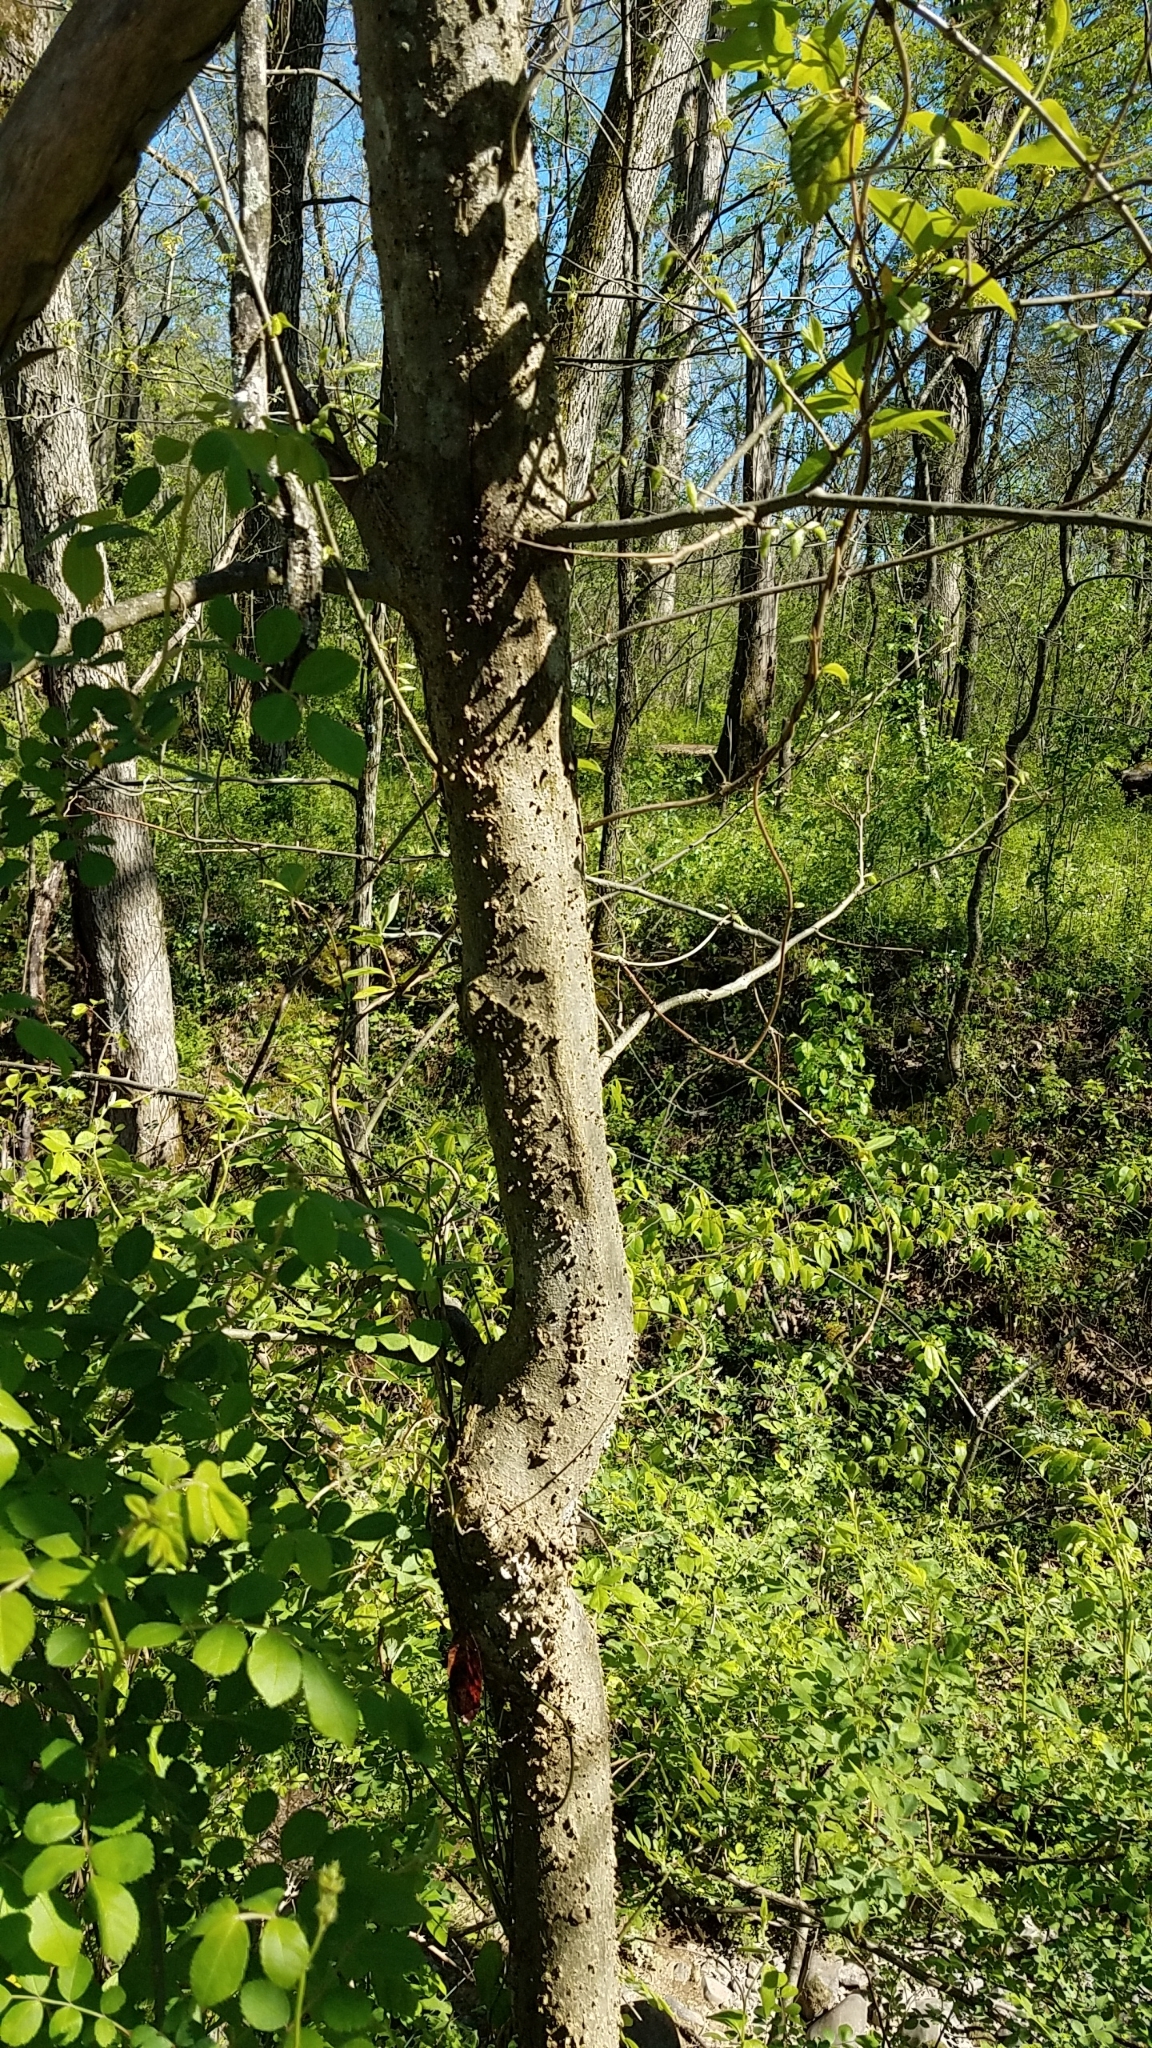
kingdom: Plantae
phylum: Tracheophyta
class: Magnoliopsida
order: Rosales
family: Cannabaceae
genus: Celtis
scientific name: Celtis occidentalis
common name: Common hackberry
